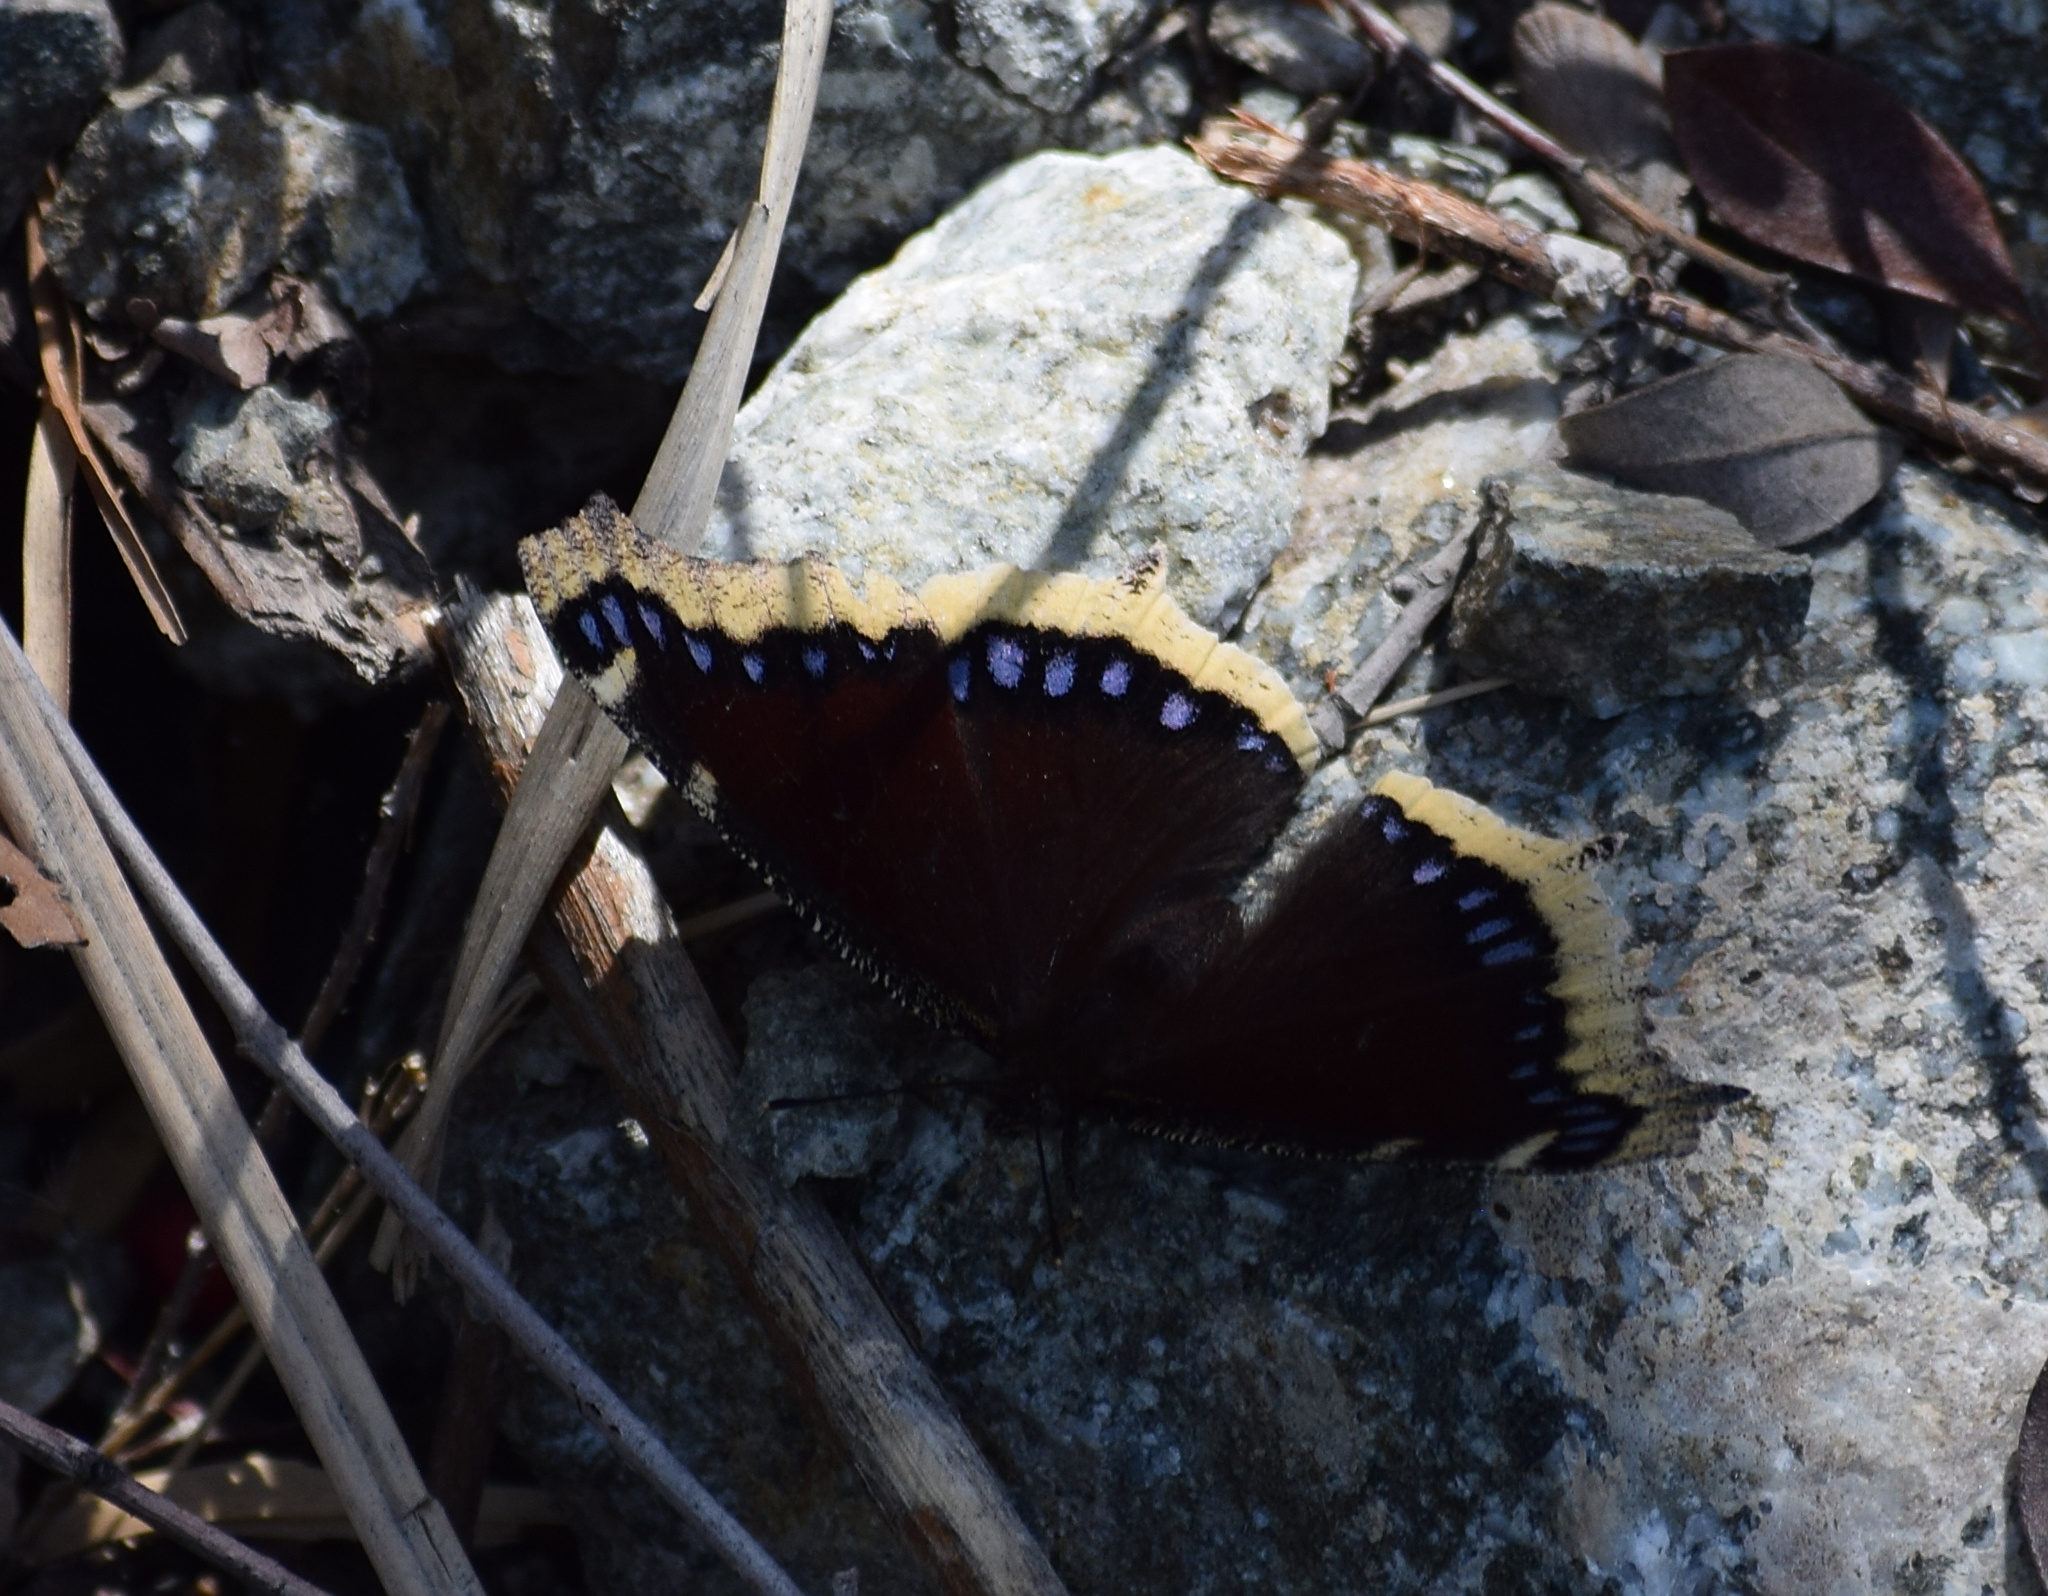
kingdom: Animalia
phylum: Arthropoda
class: Insecta
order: Lepidoptera
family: Nymphalidae
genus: Nymphalis
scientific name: Nymphalis antiopa
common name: Camberwell beauty
